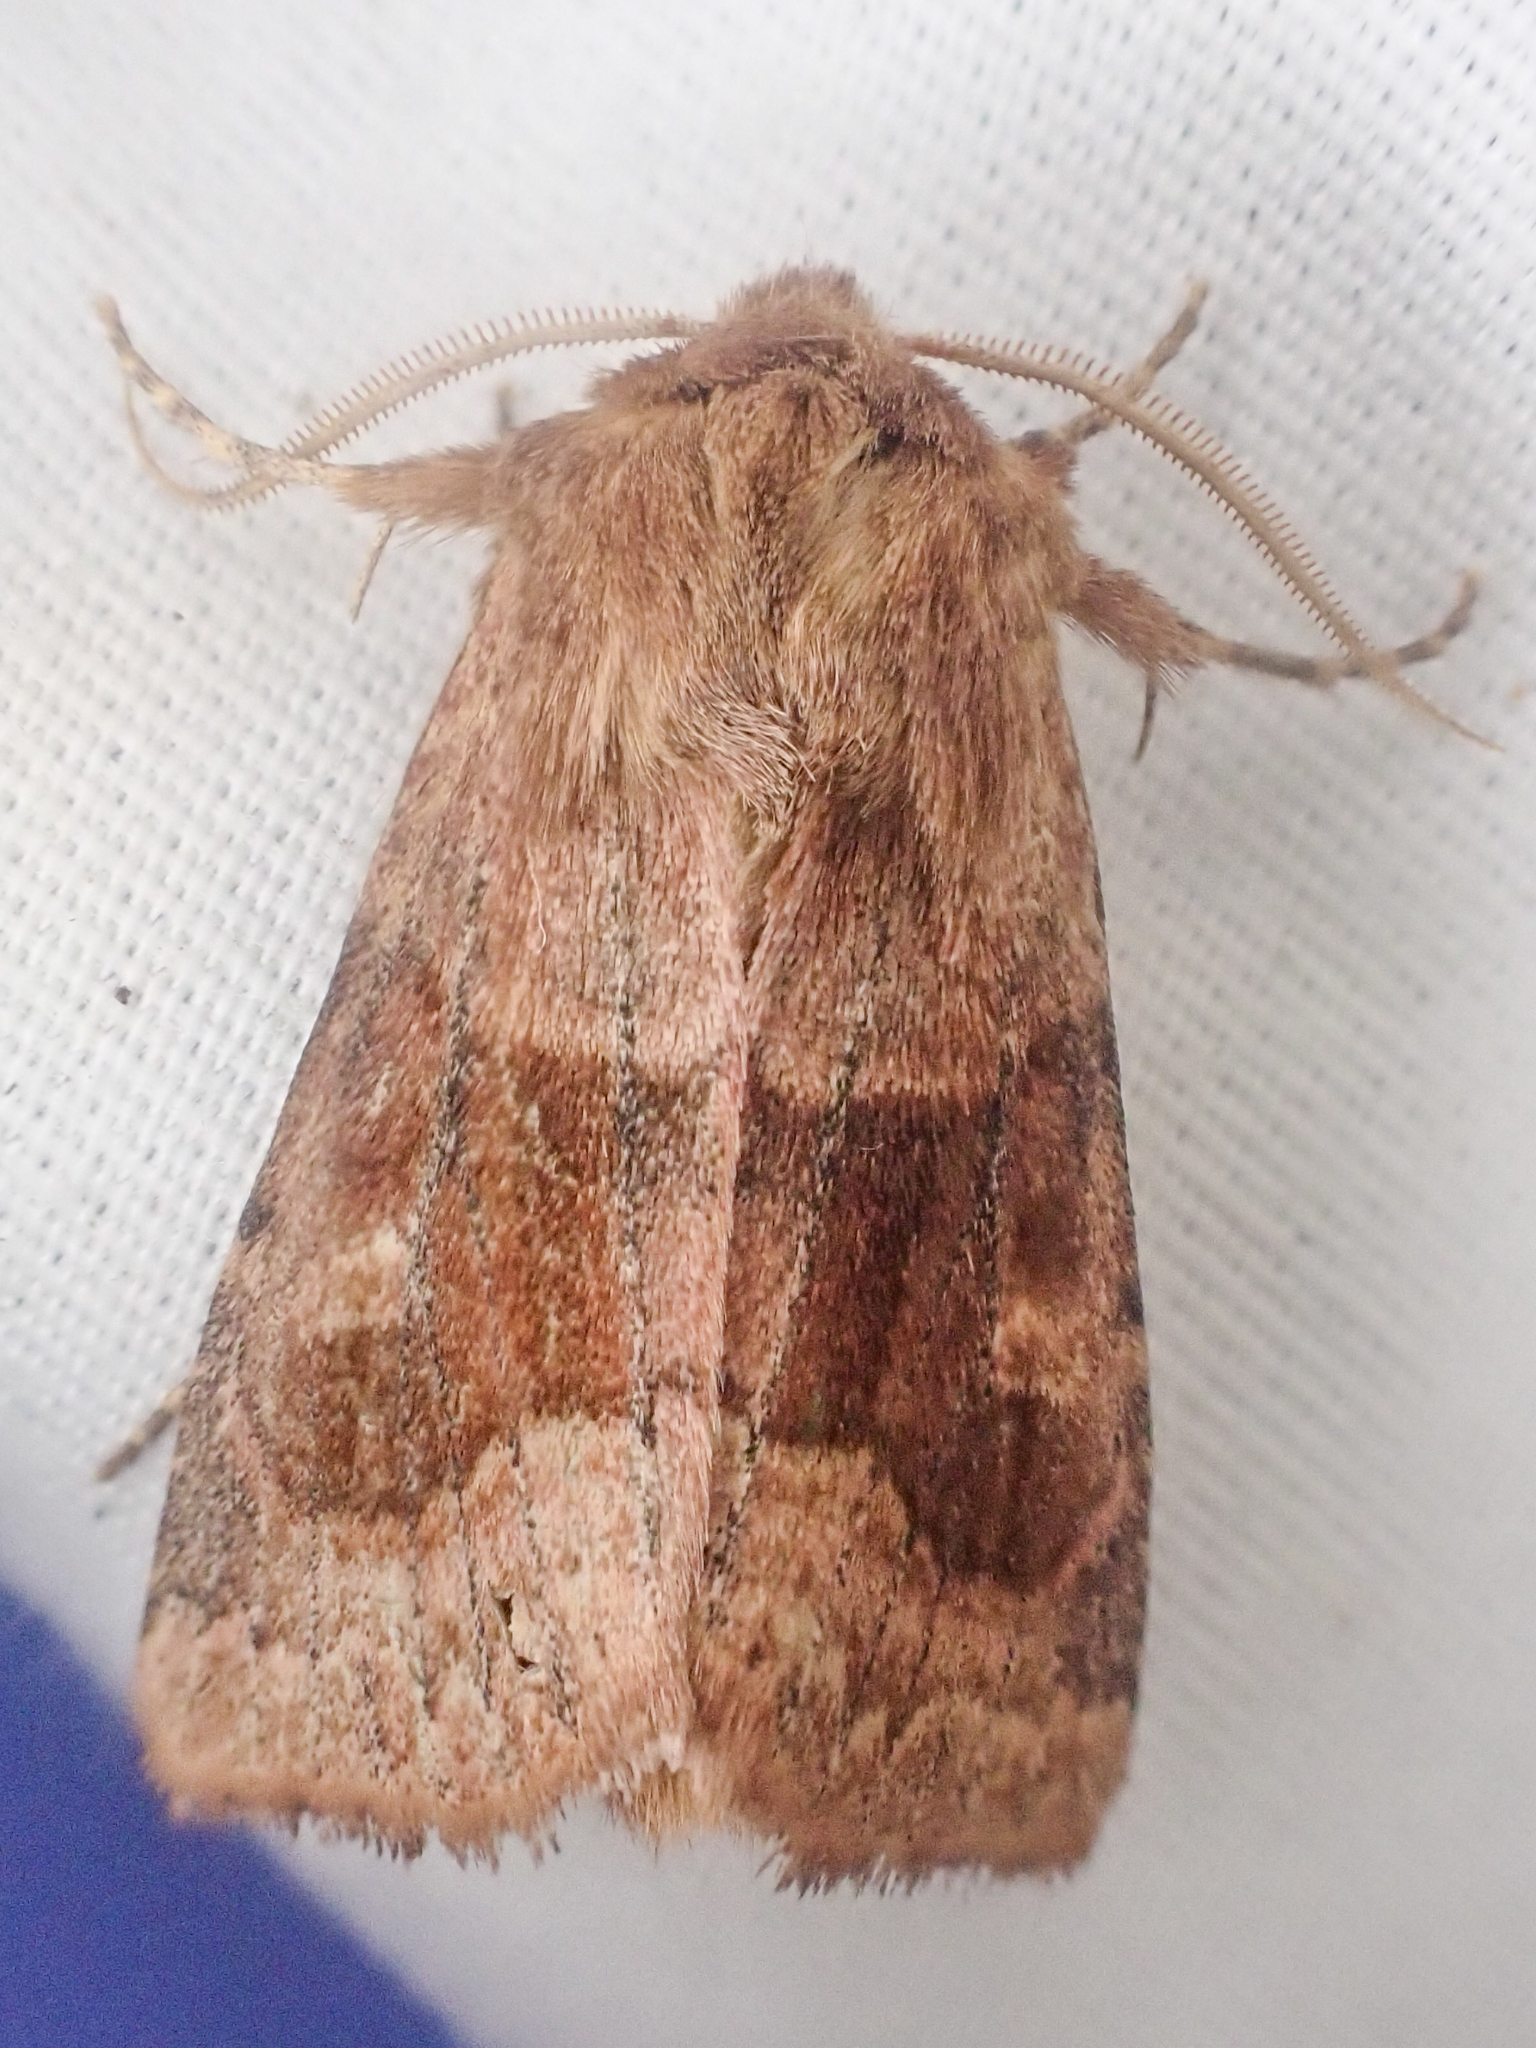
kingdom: Animalia
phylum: Arthropoda
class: Insecta
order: Lepidoptera
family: Noctuidae
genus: Nephelodes
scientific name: Nephelodes minians
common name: Bronzed cutworm
